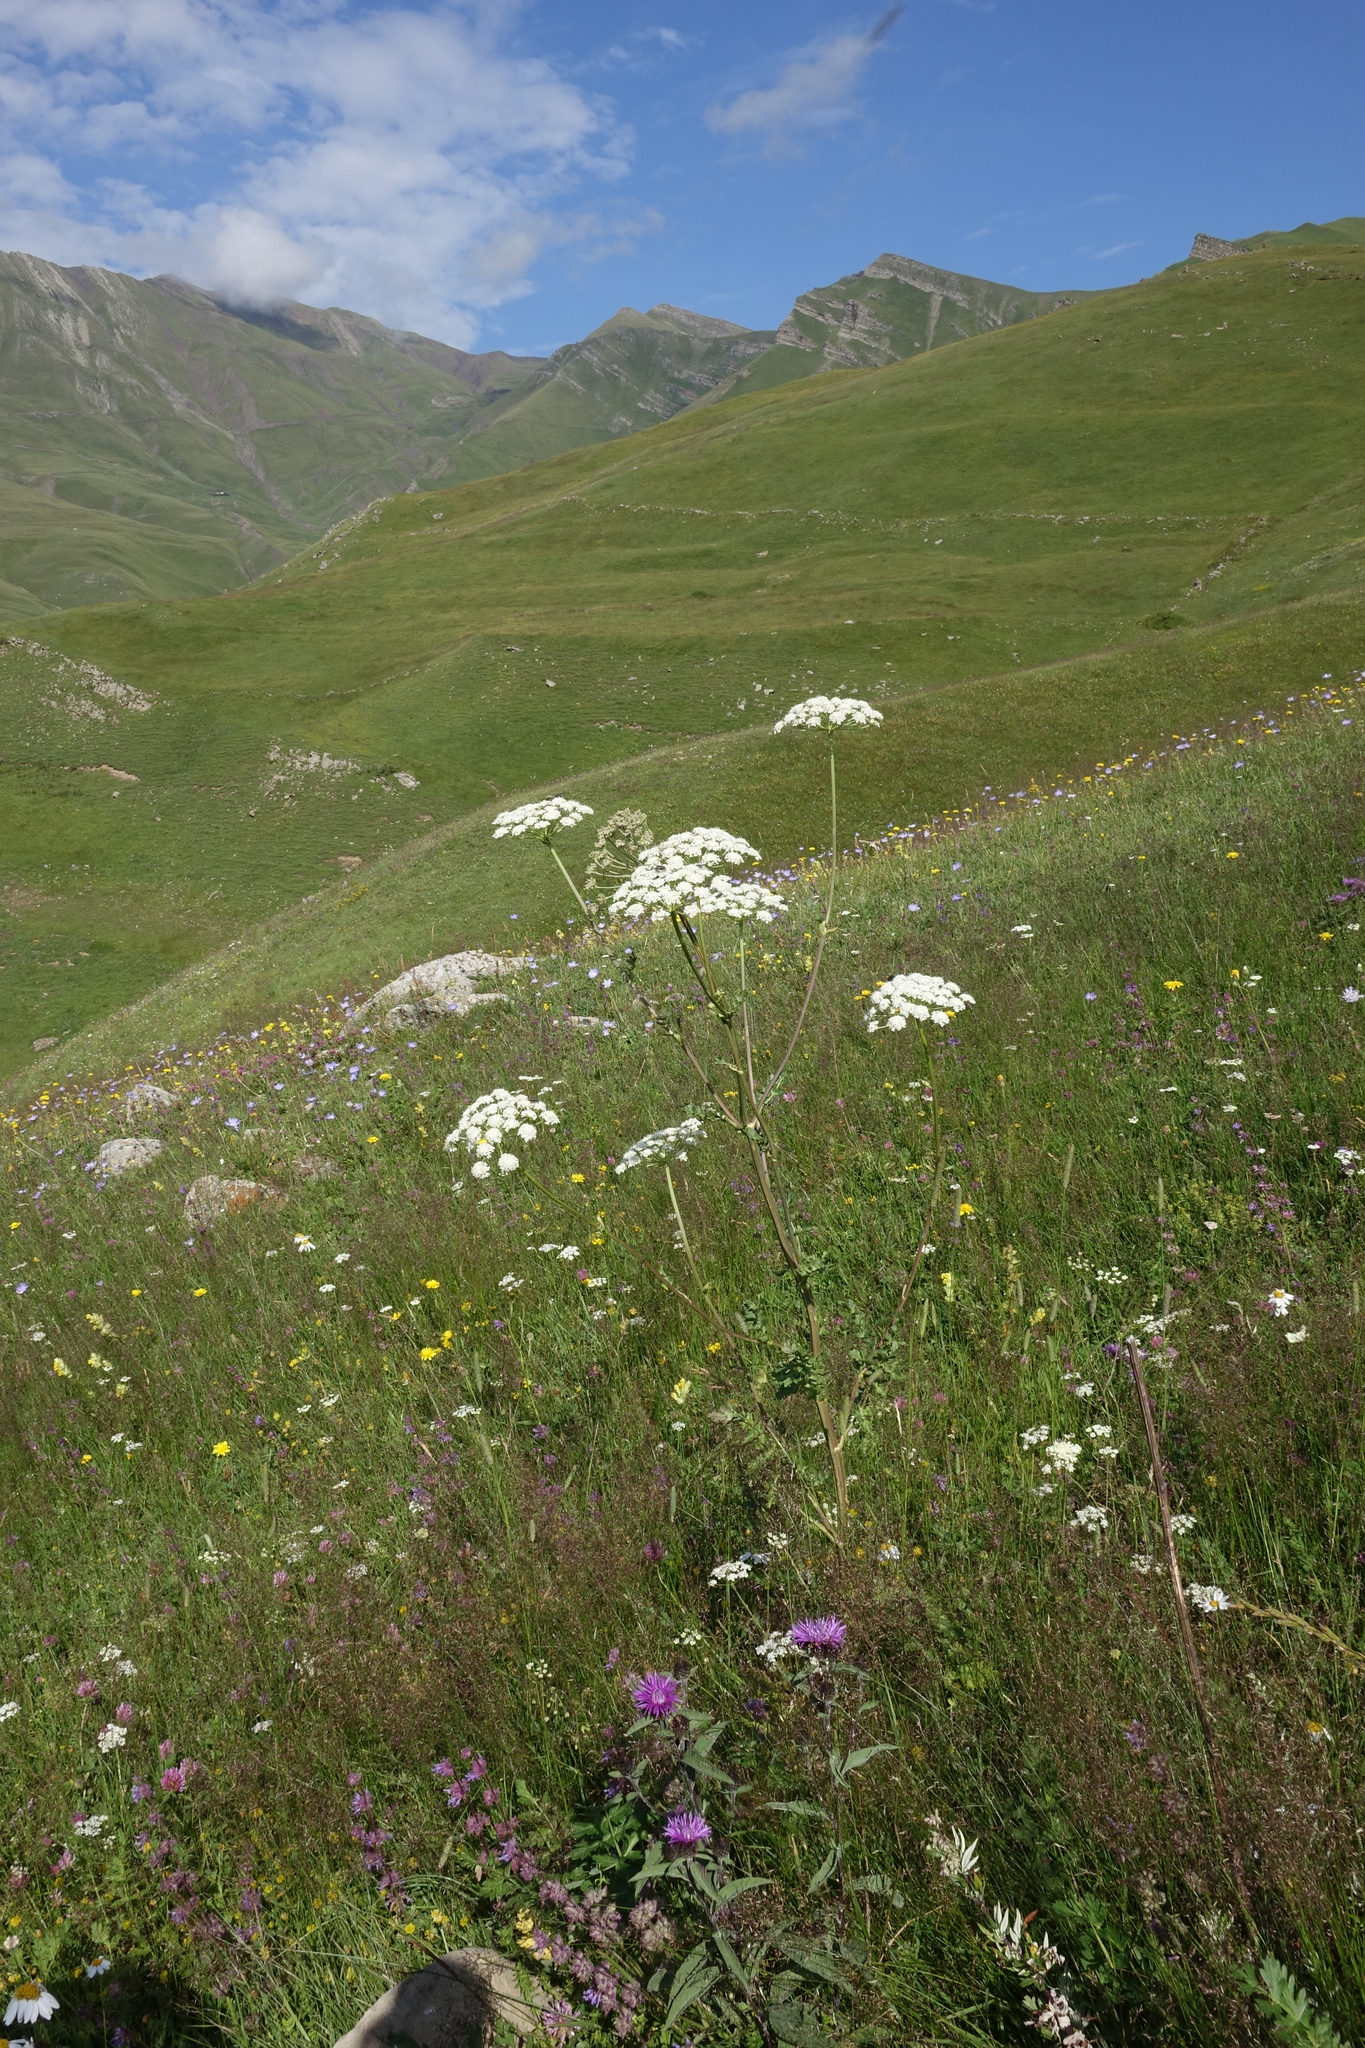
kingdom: Plantae
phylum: Tracheophyta
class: Magnoliopsida
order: Apiales
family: Apiaceae
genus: Seseli
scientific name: Seseli libanotis
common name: Mooncarrot
